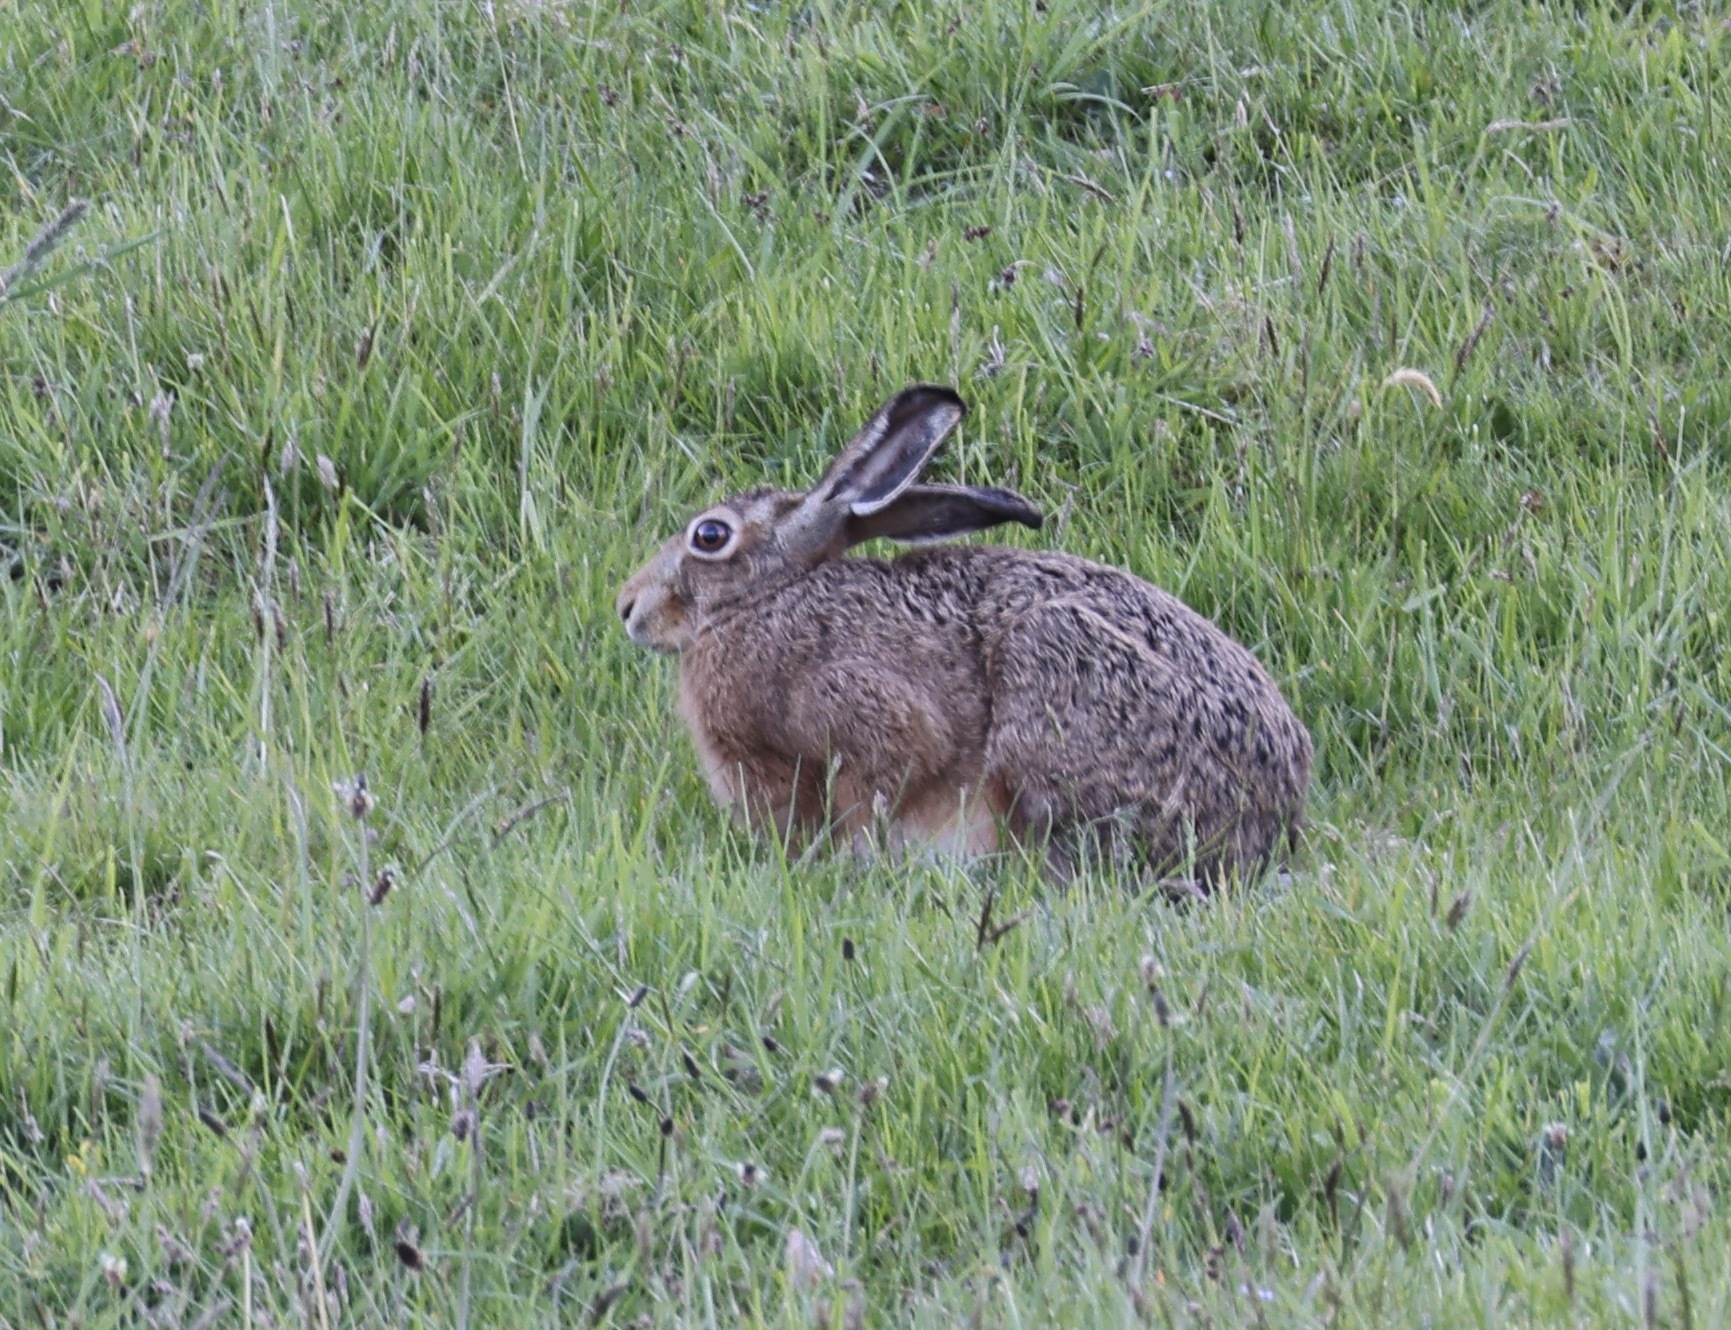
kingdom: Animalia
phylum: Chordata
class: Mammalia
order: Lagomorpha
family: Leporidae
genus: Lepus
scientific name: Lepus europaeus
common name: European hare
